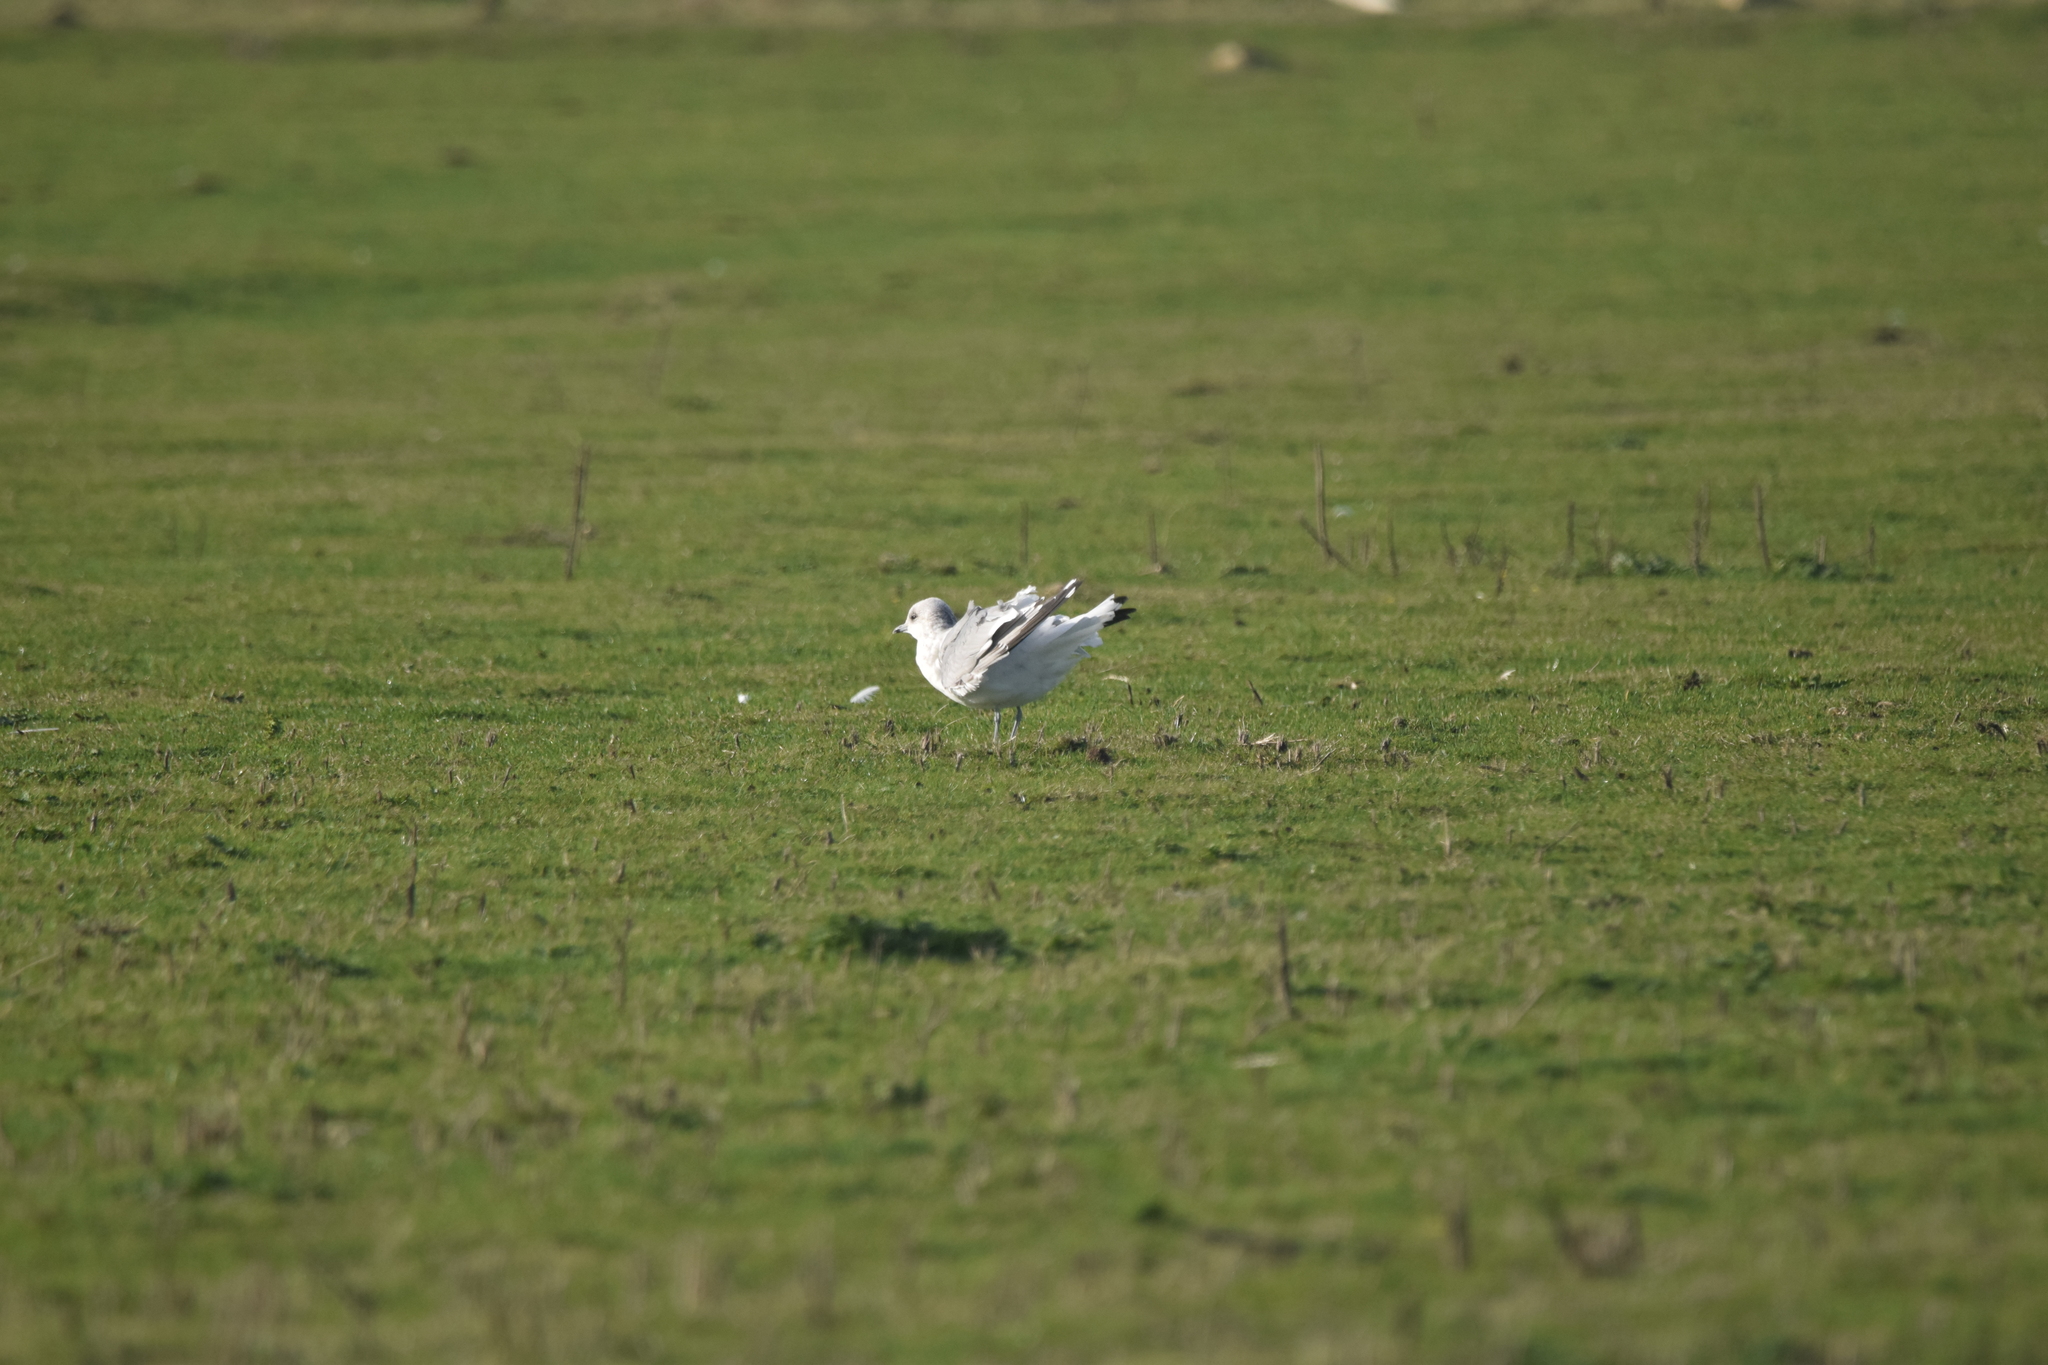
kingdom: Animalia
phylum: Chordata
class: Aves
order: Charadriiformes
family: Laridae
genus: Larus
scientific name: Larus canus
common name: Mew gull
